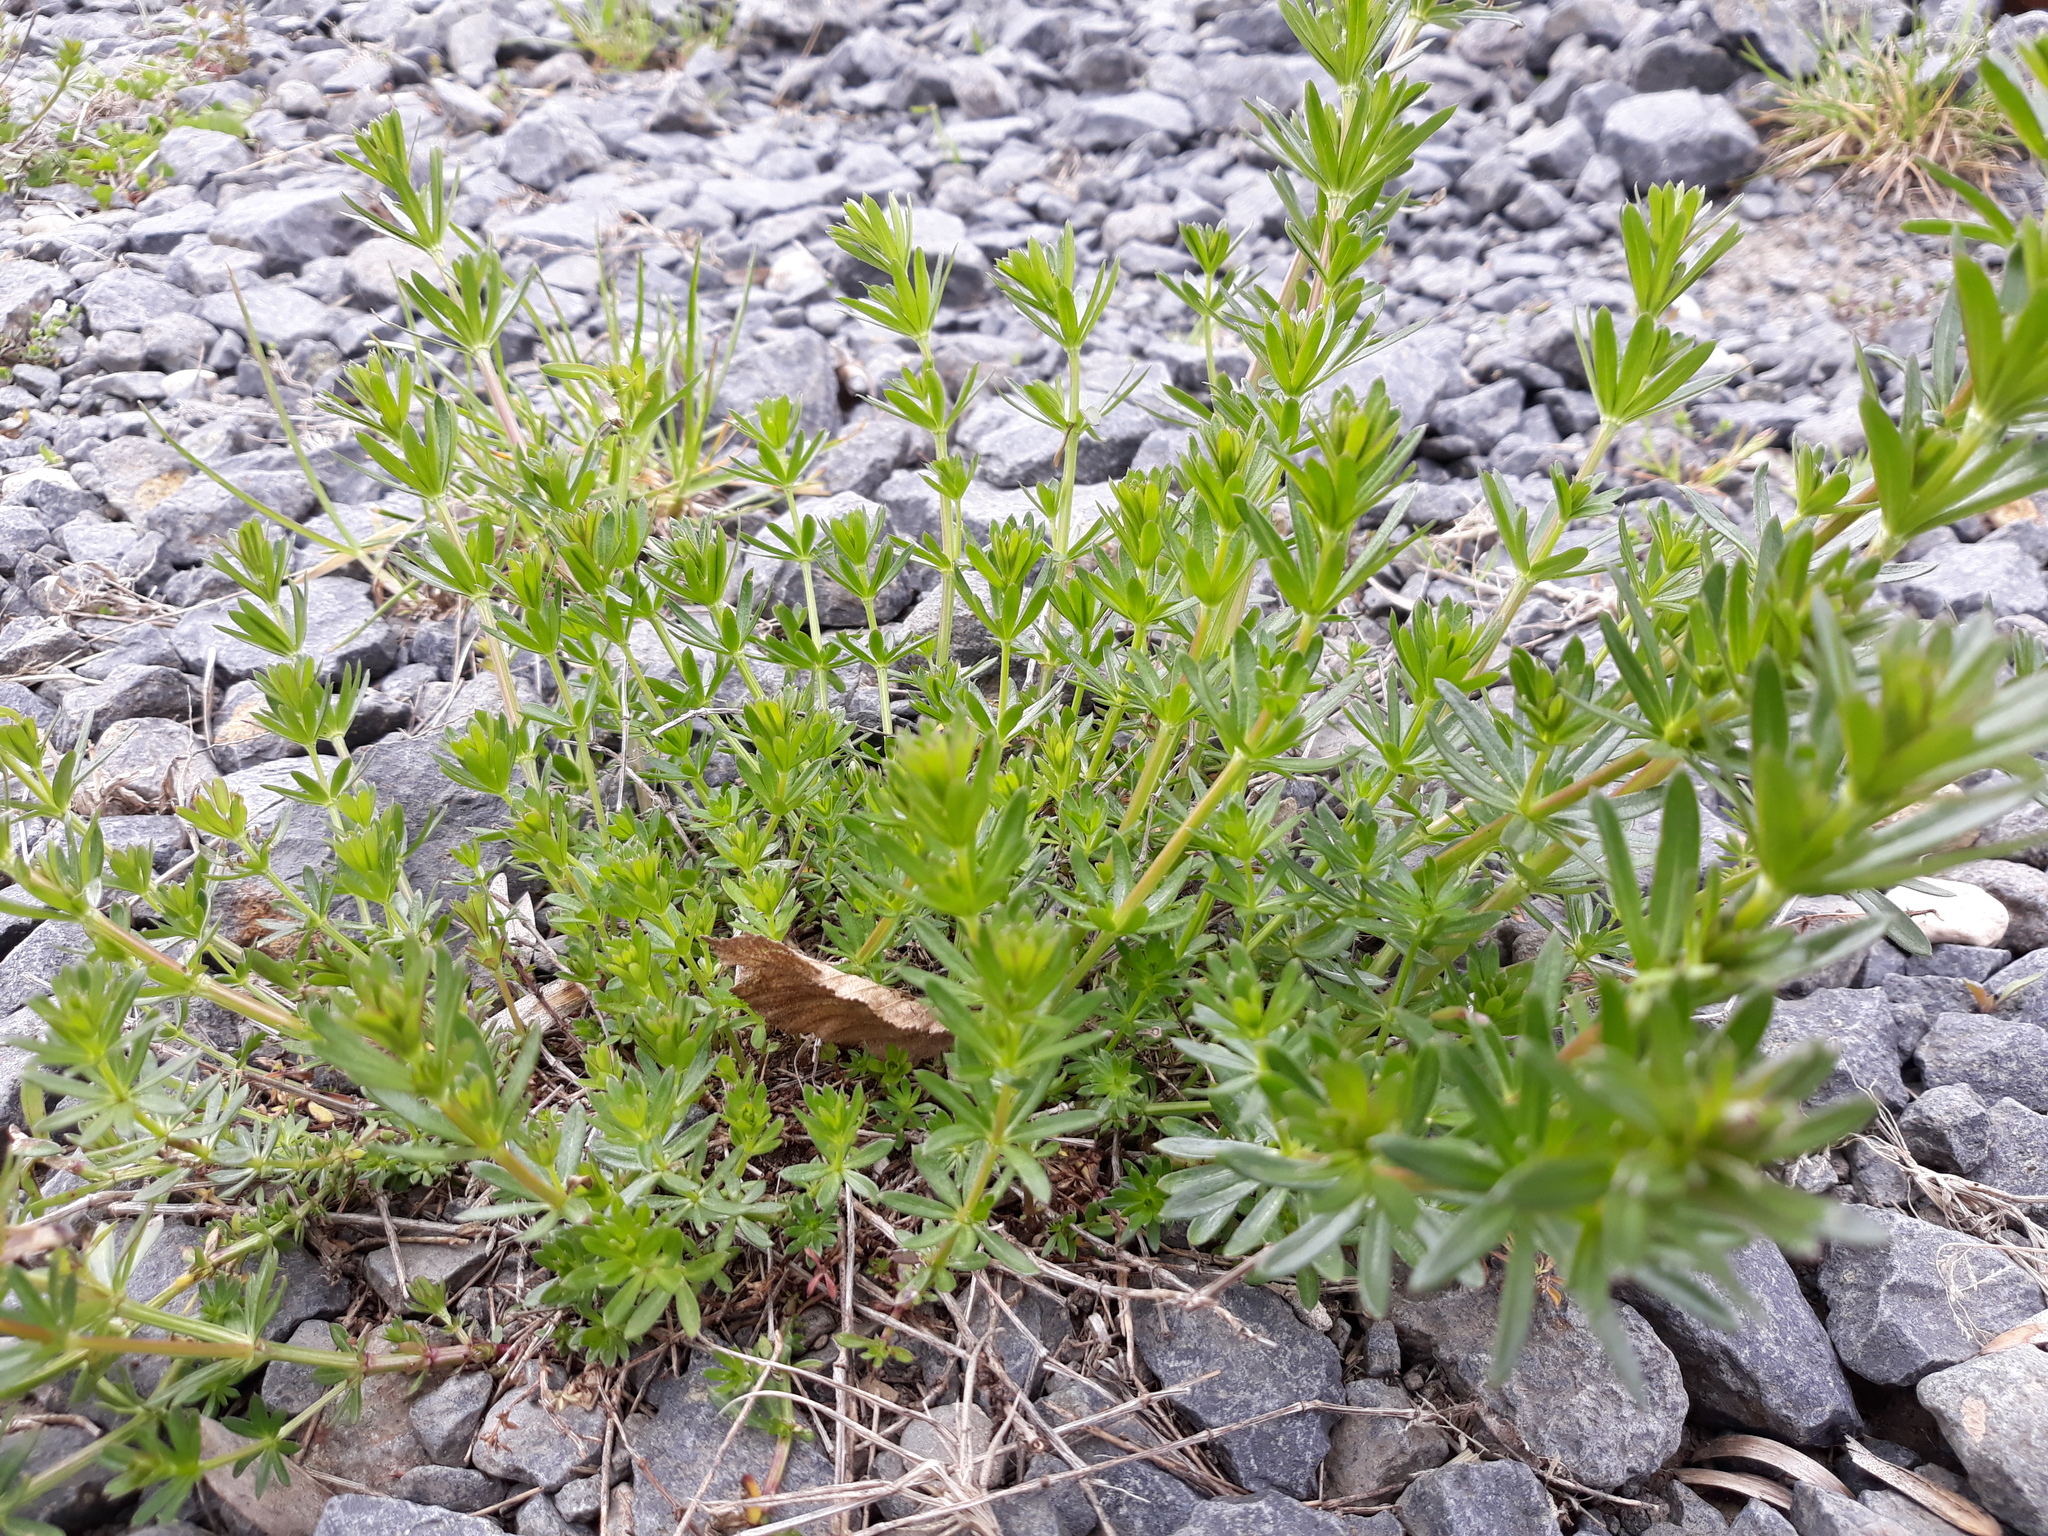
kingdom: Plantae
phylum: Tracheophyta
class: Magnoliopsida
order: Gentianales
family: Rubiaceae
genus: Galium
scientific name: Galium album
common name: White bedstraw
